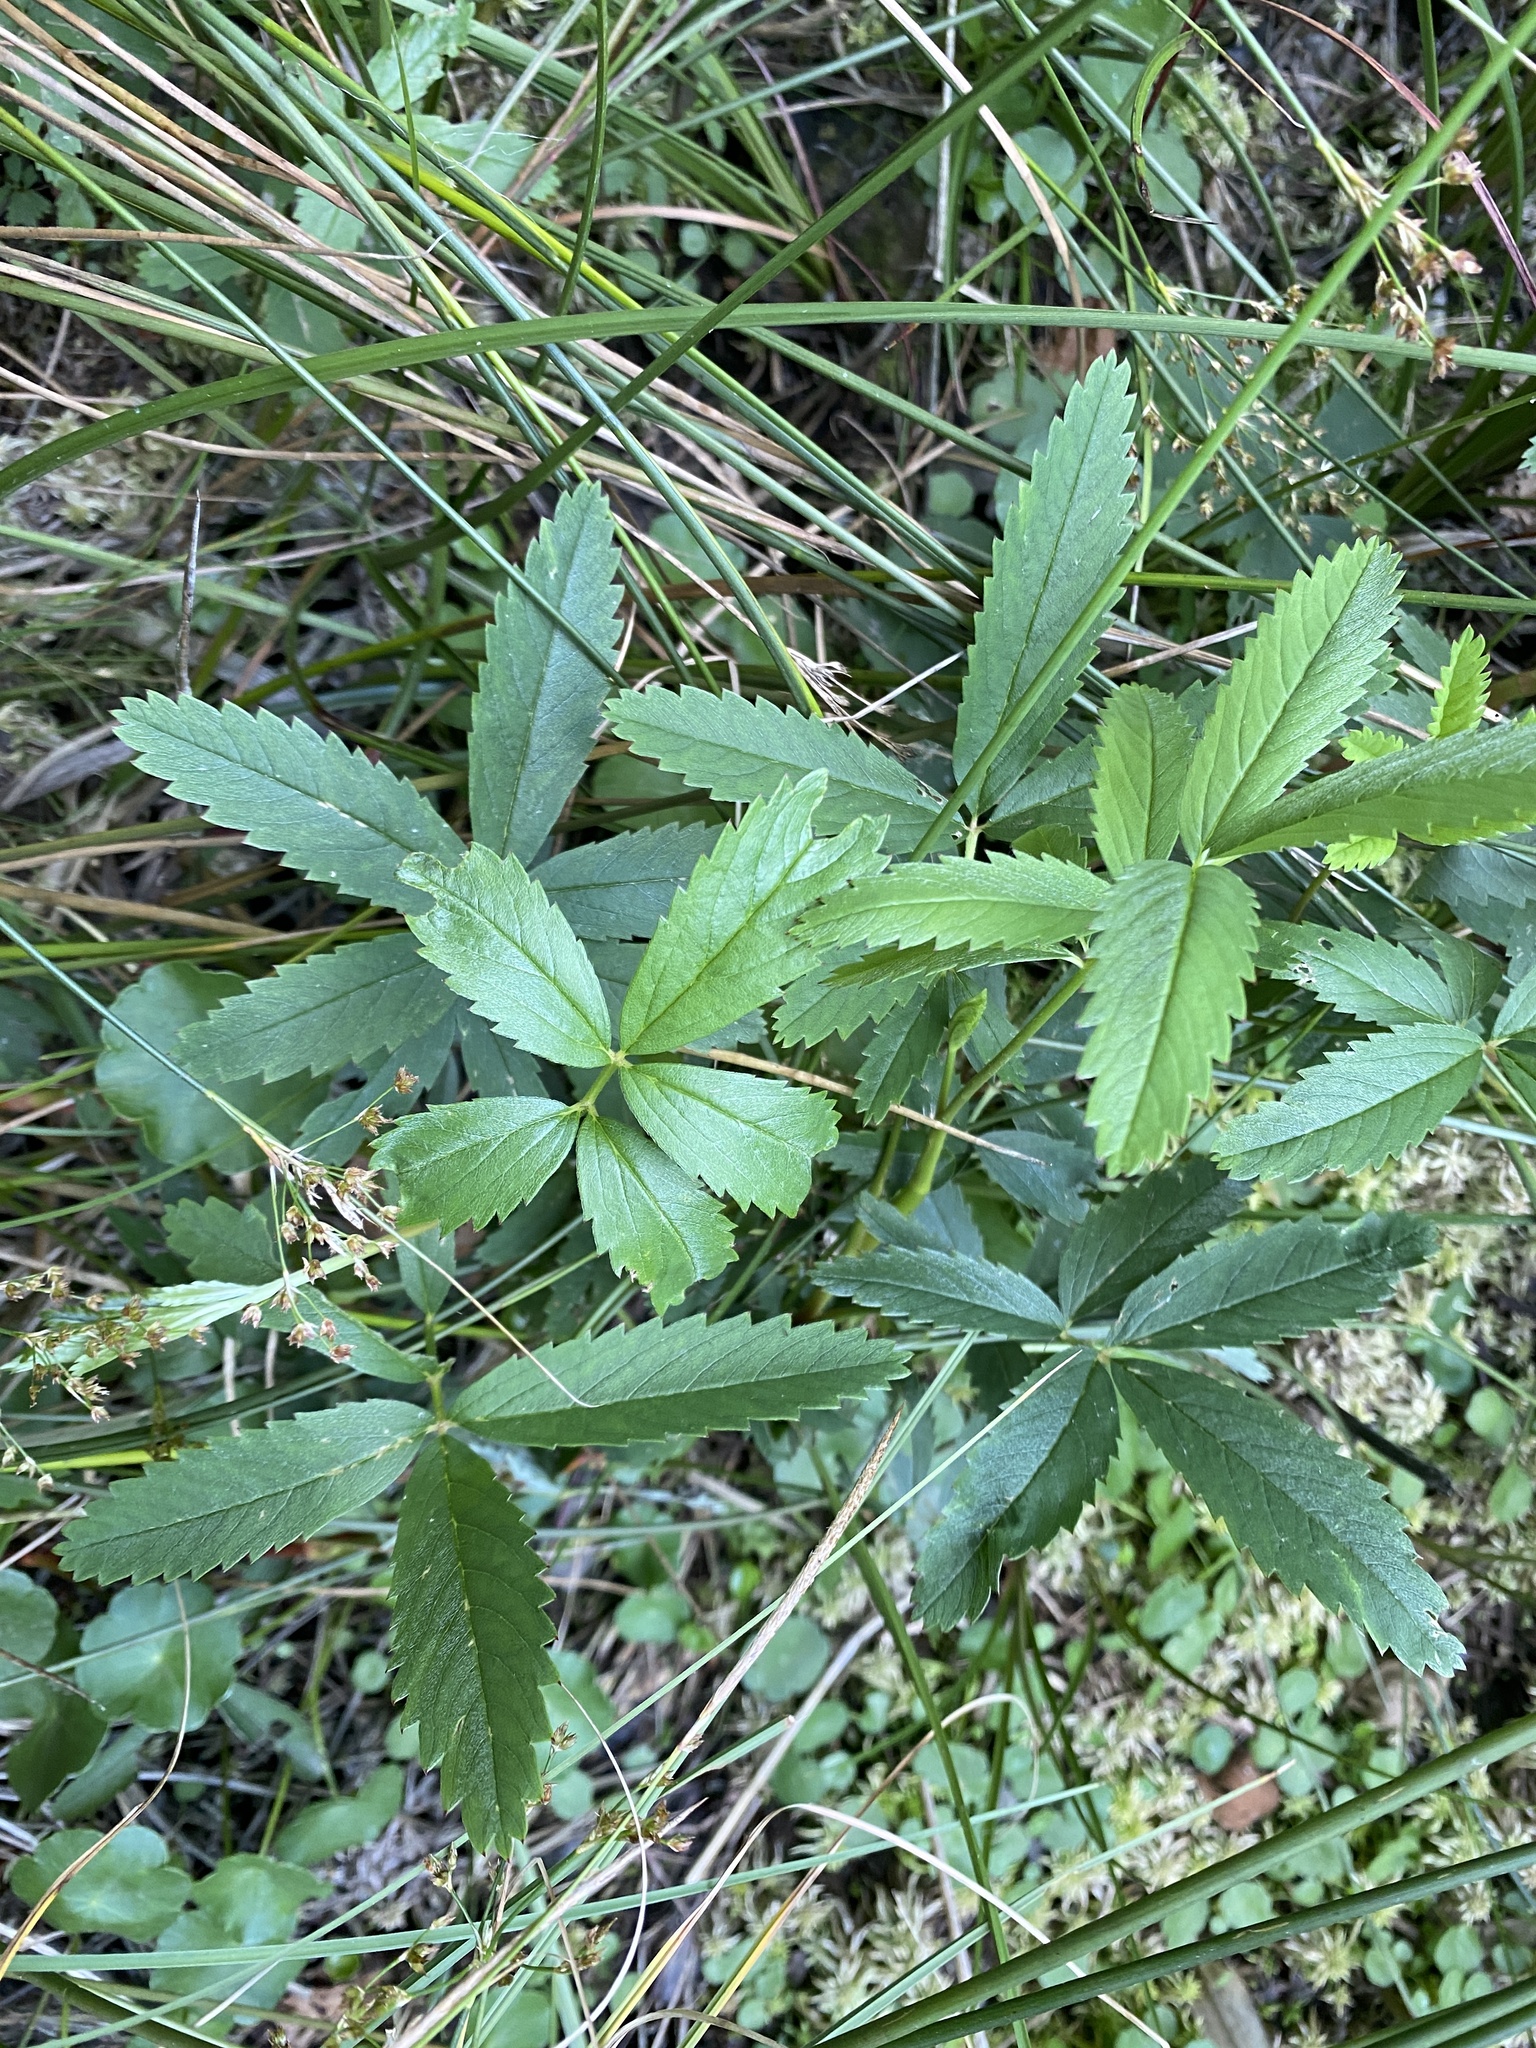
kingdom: Plantae
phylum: Tracheophyta
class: Magnoliopsida
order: Rosales
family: Rosaceae
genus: Comarum
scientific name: Comarum palustre
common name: Marsh cinquefoil
